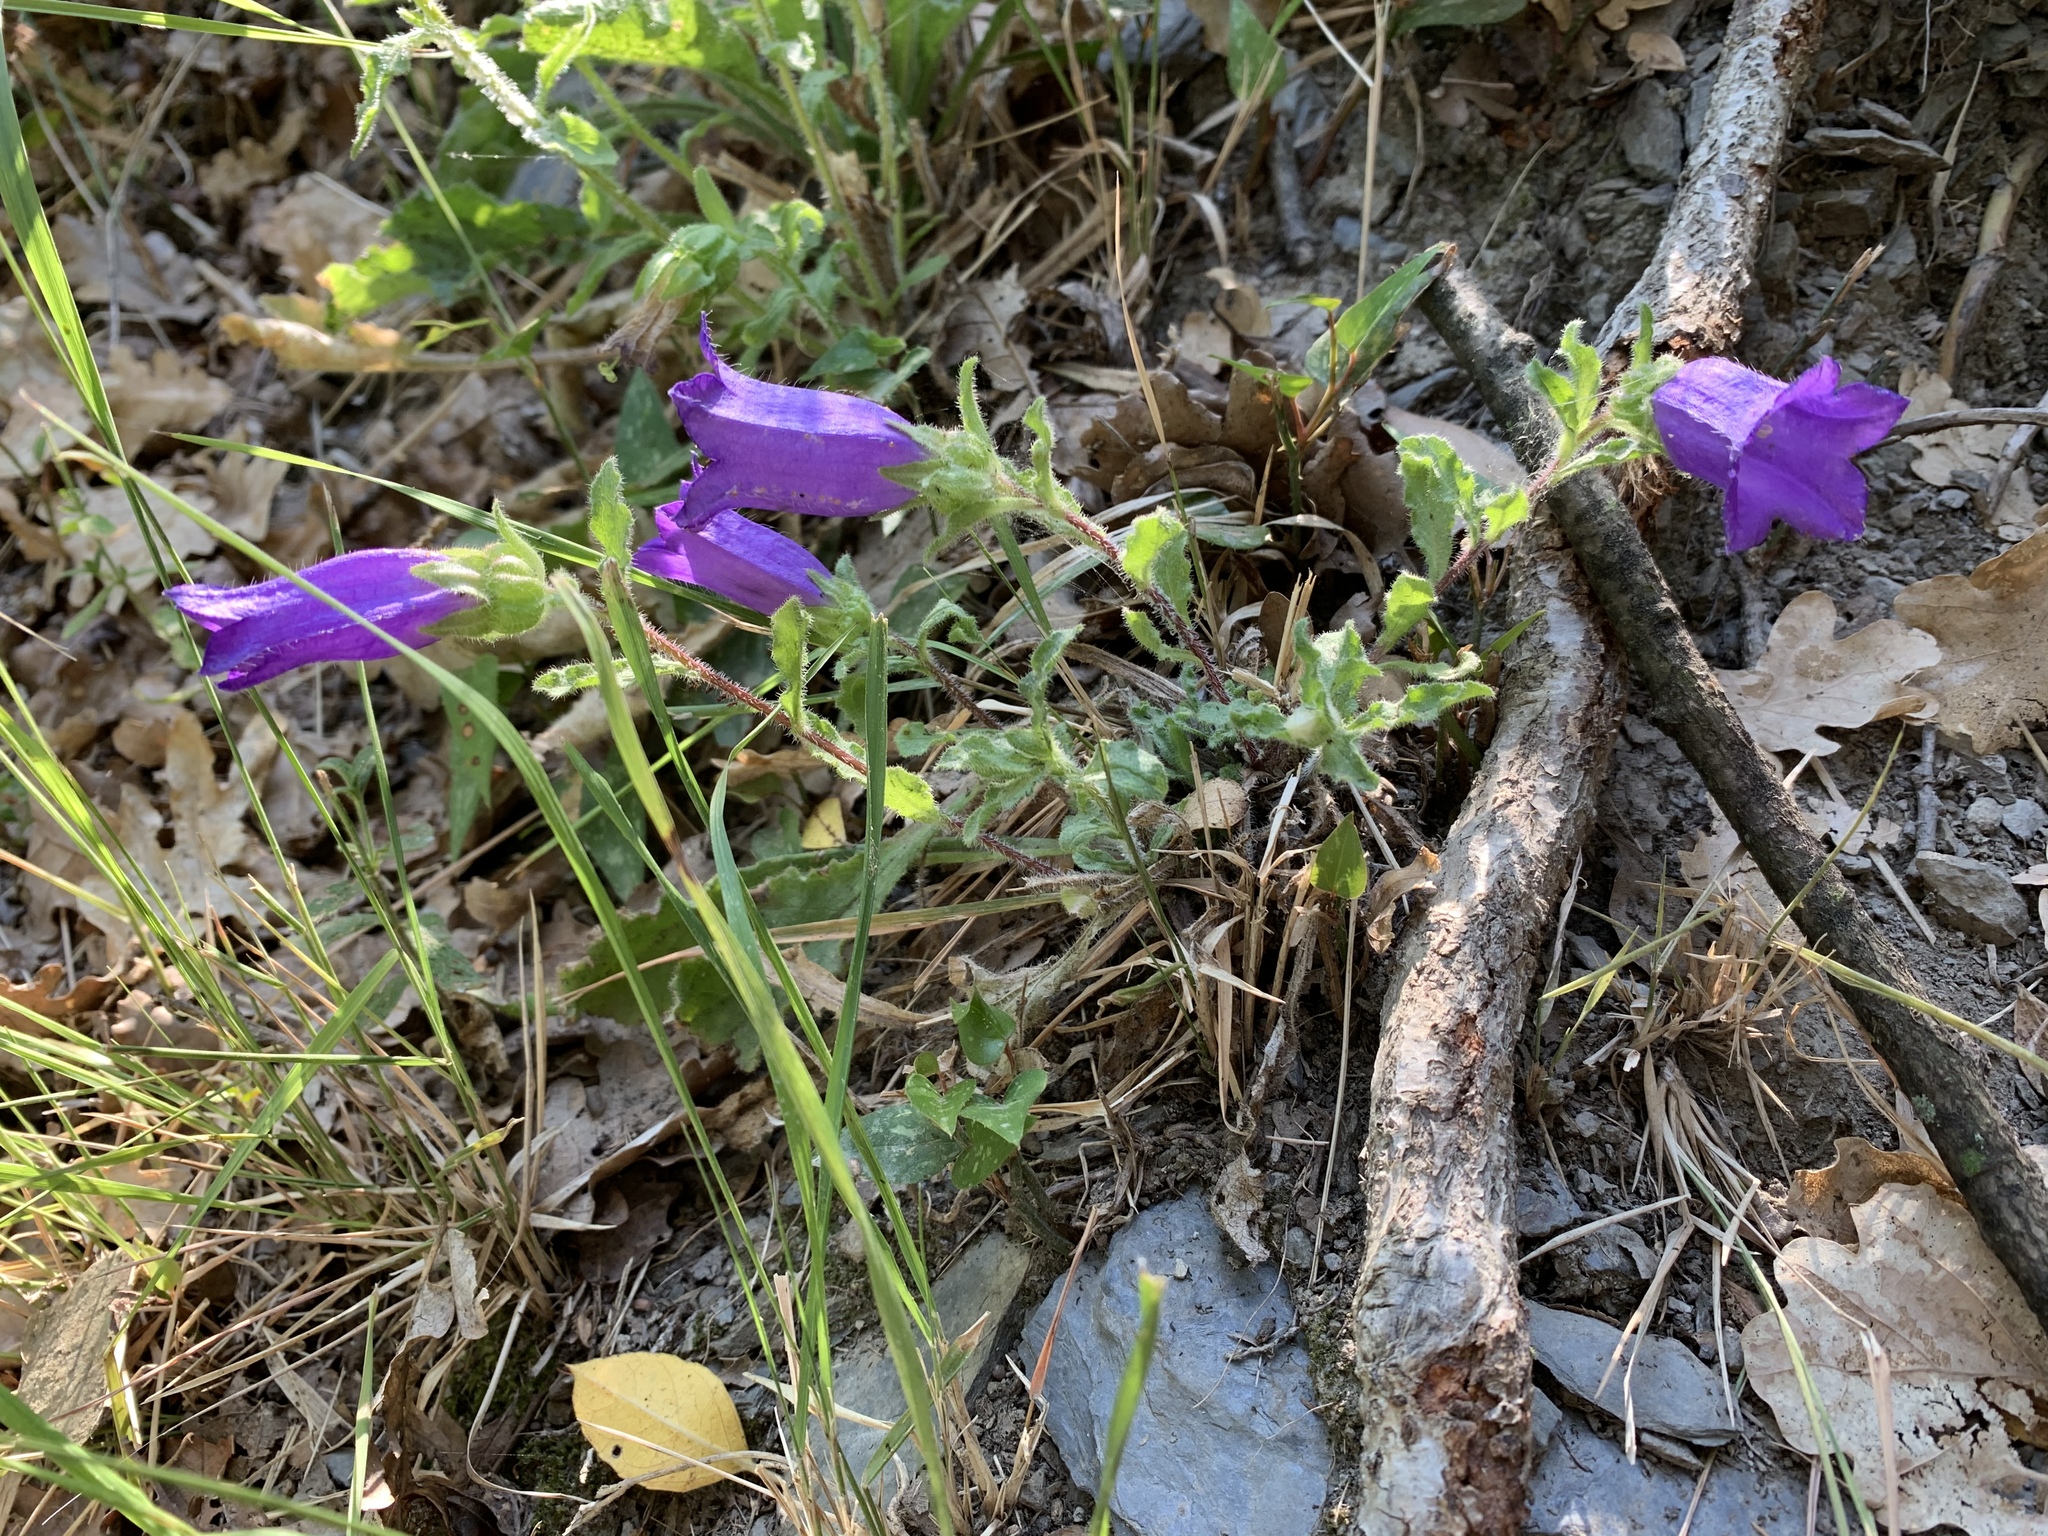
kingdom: Plantae
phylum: Tracheophyta
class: Magnoliopsida
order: Asterales
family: Campanulaceae
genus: Campanula
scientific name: Campanula medium
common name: Canterbury bells
